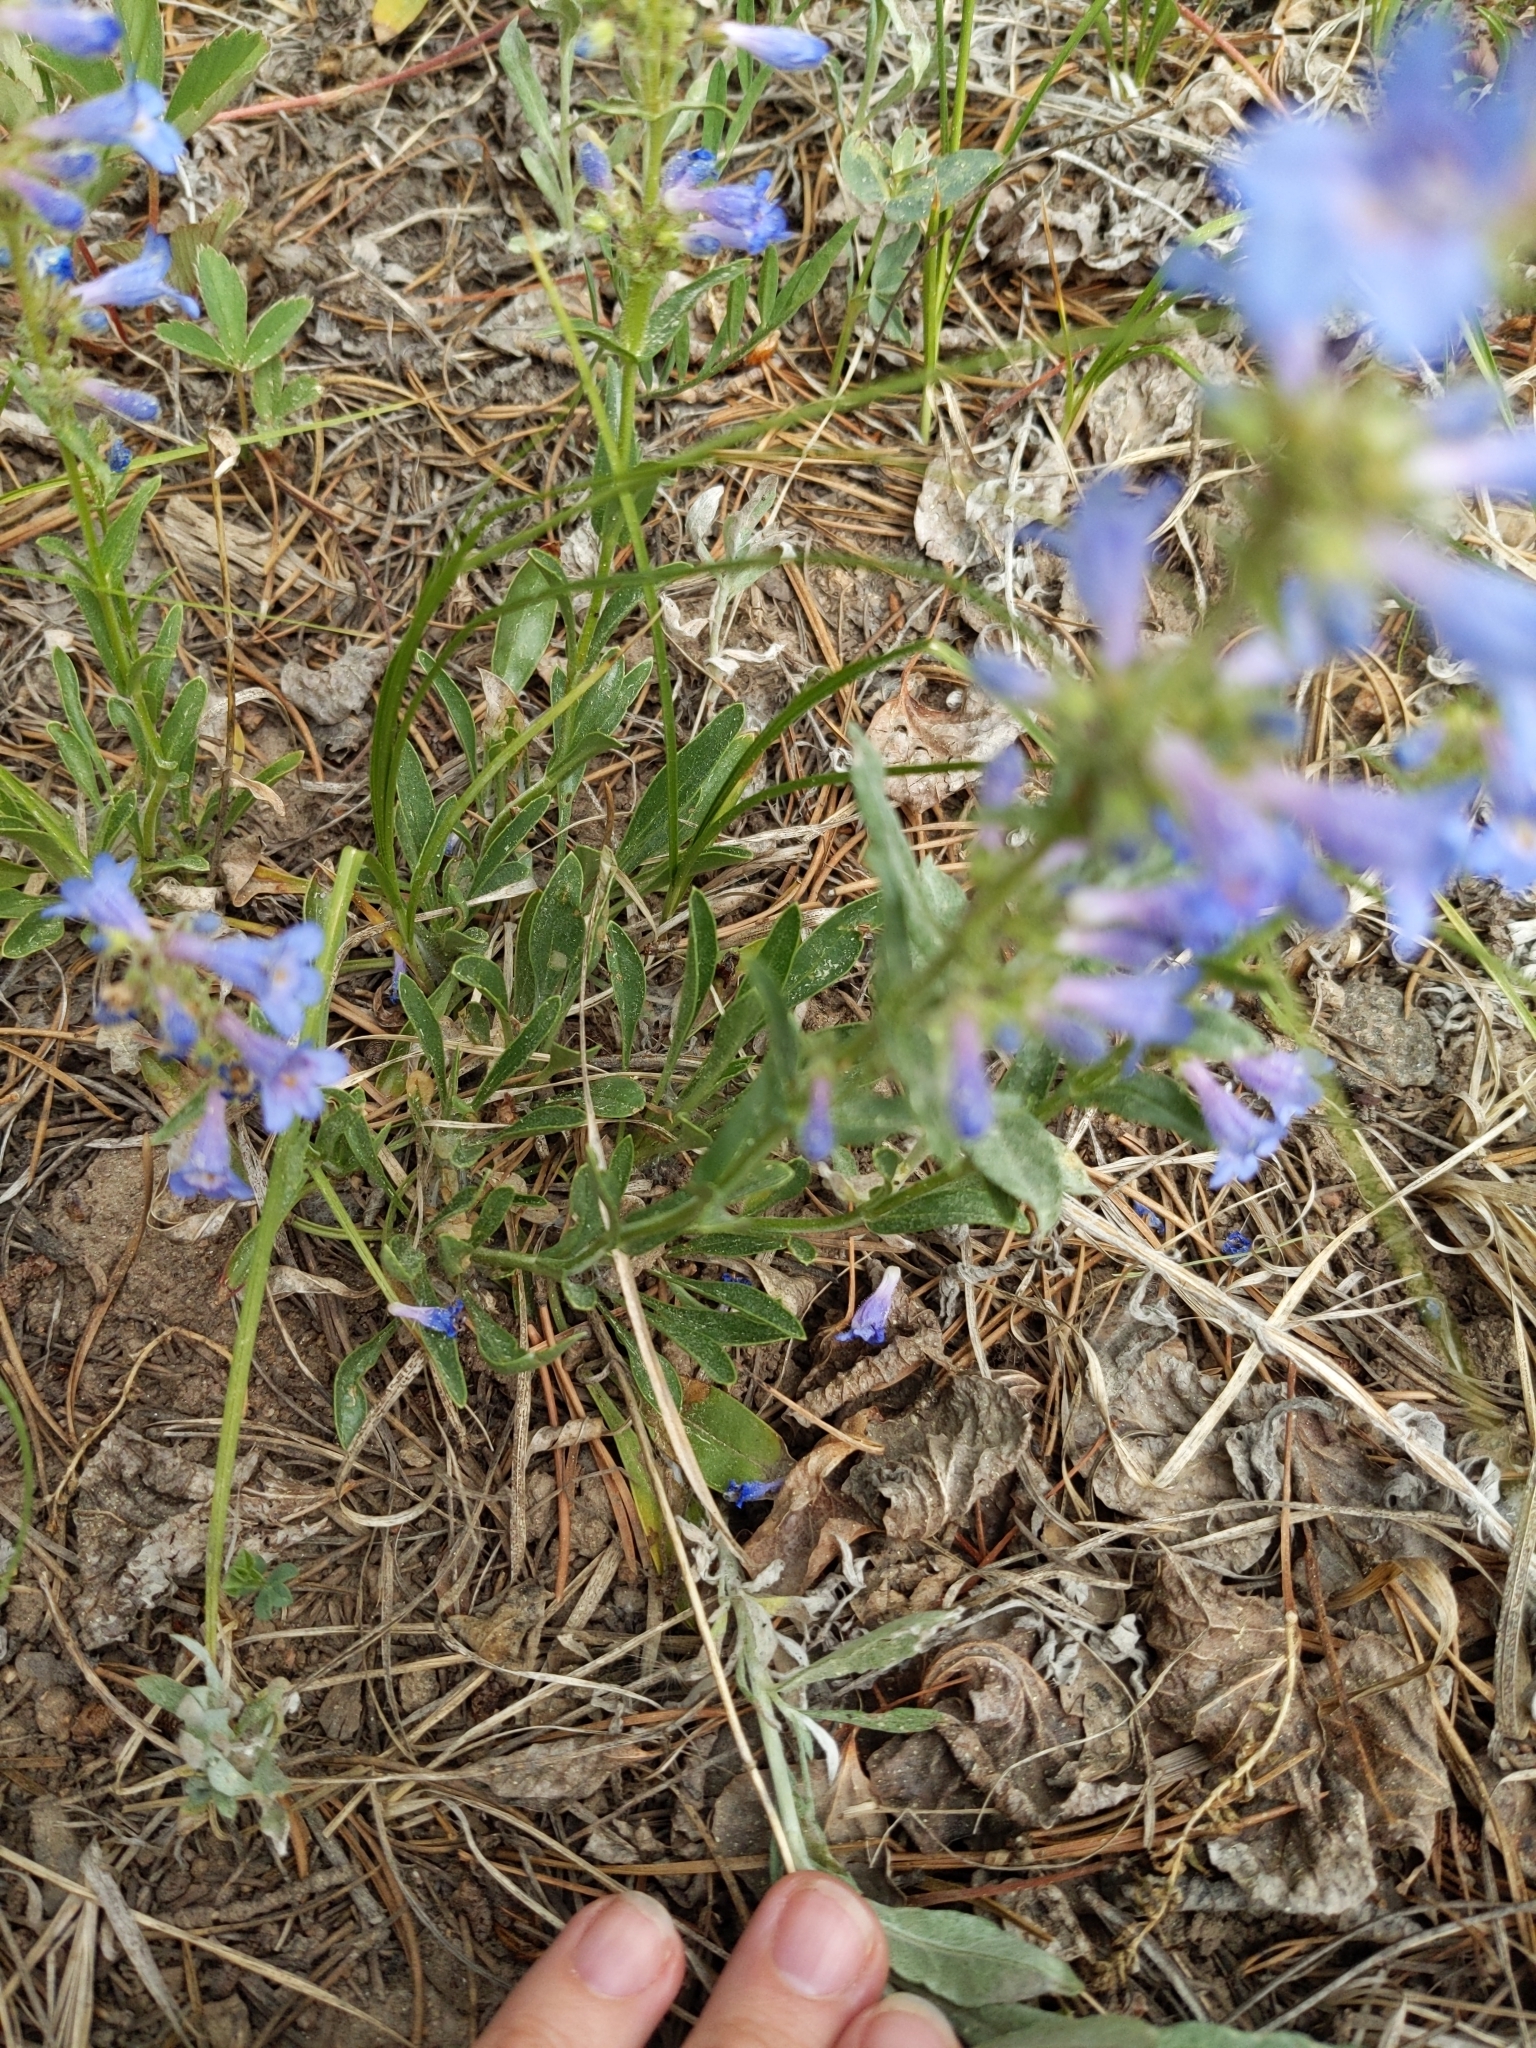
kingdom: Plantae
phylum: Tracheophyta
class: Magnoliopsida
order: Lamiales
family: Plantaginaceae
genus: Penstemon
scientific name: Penstemon virens
